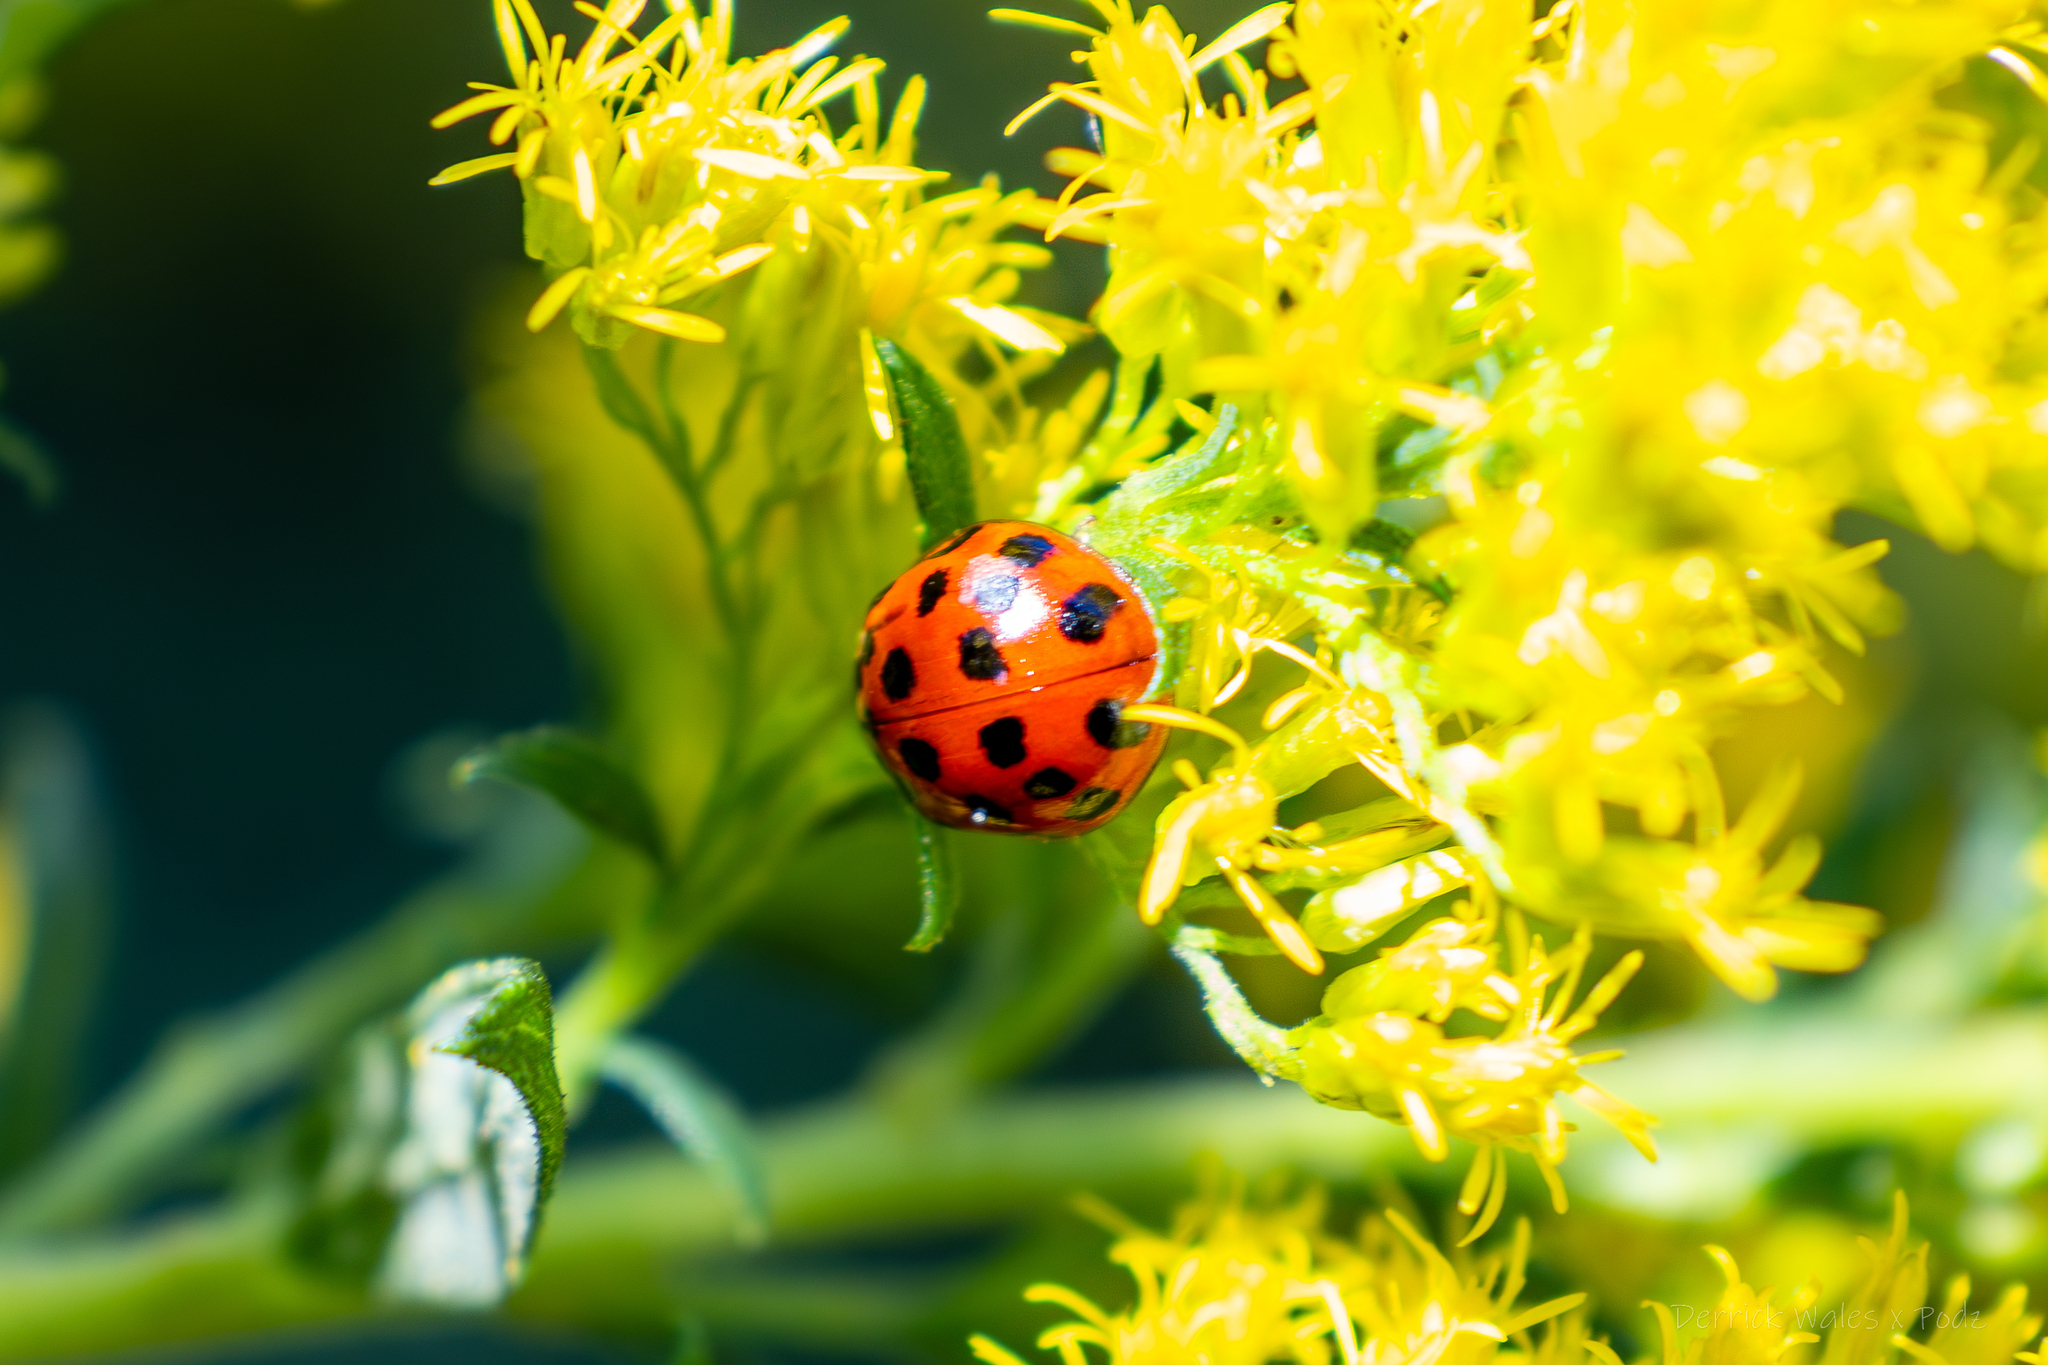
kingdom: Animalia
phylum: Arthropoda
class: Insecta
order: Coleoptera
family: Coccinellidae
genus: Harmonia
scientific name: Harmonia axyridis
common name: Harlequin ladybird
